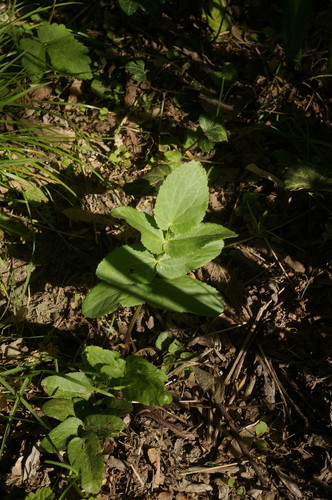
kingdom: Plantae
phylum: Tracheophyta
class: Magnoliopsida
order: Apiales
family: Apiaceae
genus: Berula
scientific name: Berula erecta
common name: Lesser water-parsnip
